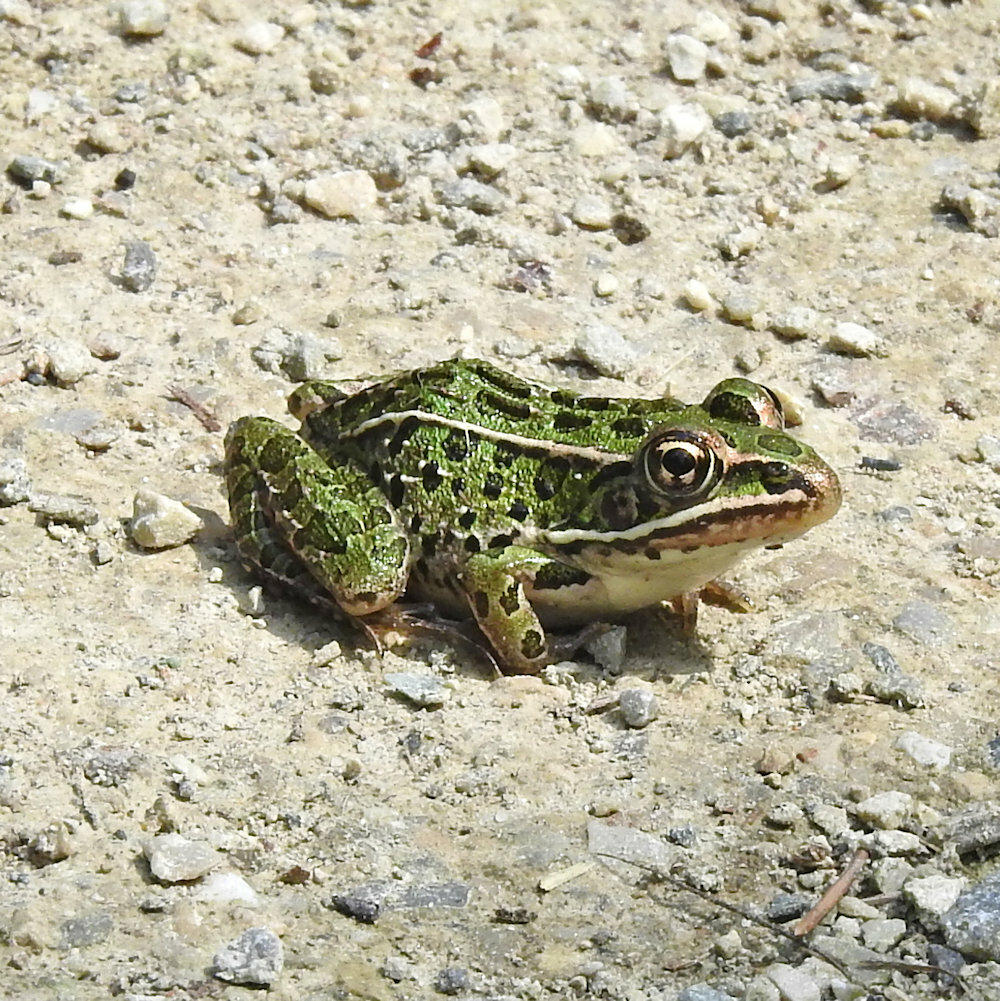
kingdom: Animalia
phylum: Chordata
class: Amphibia
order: Anura
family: Ranidae
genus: Lithobates
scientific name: Lithobates pipiens
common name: Northern leopard frog
